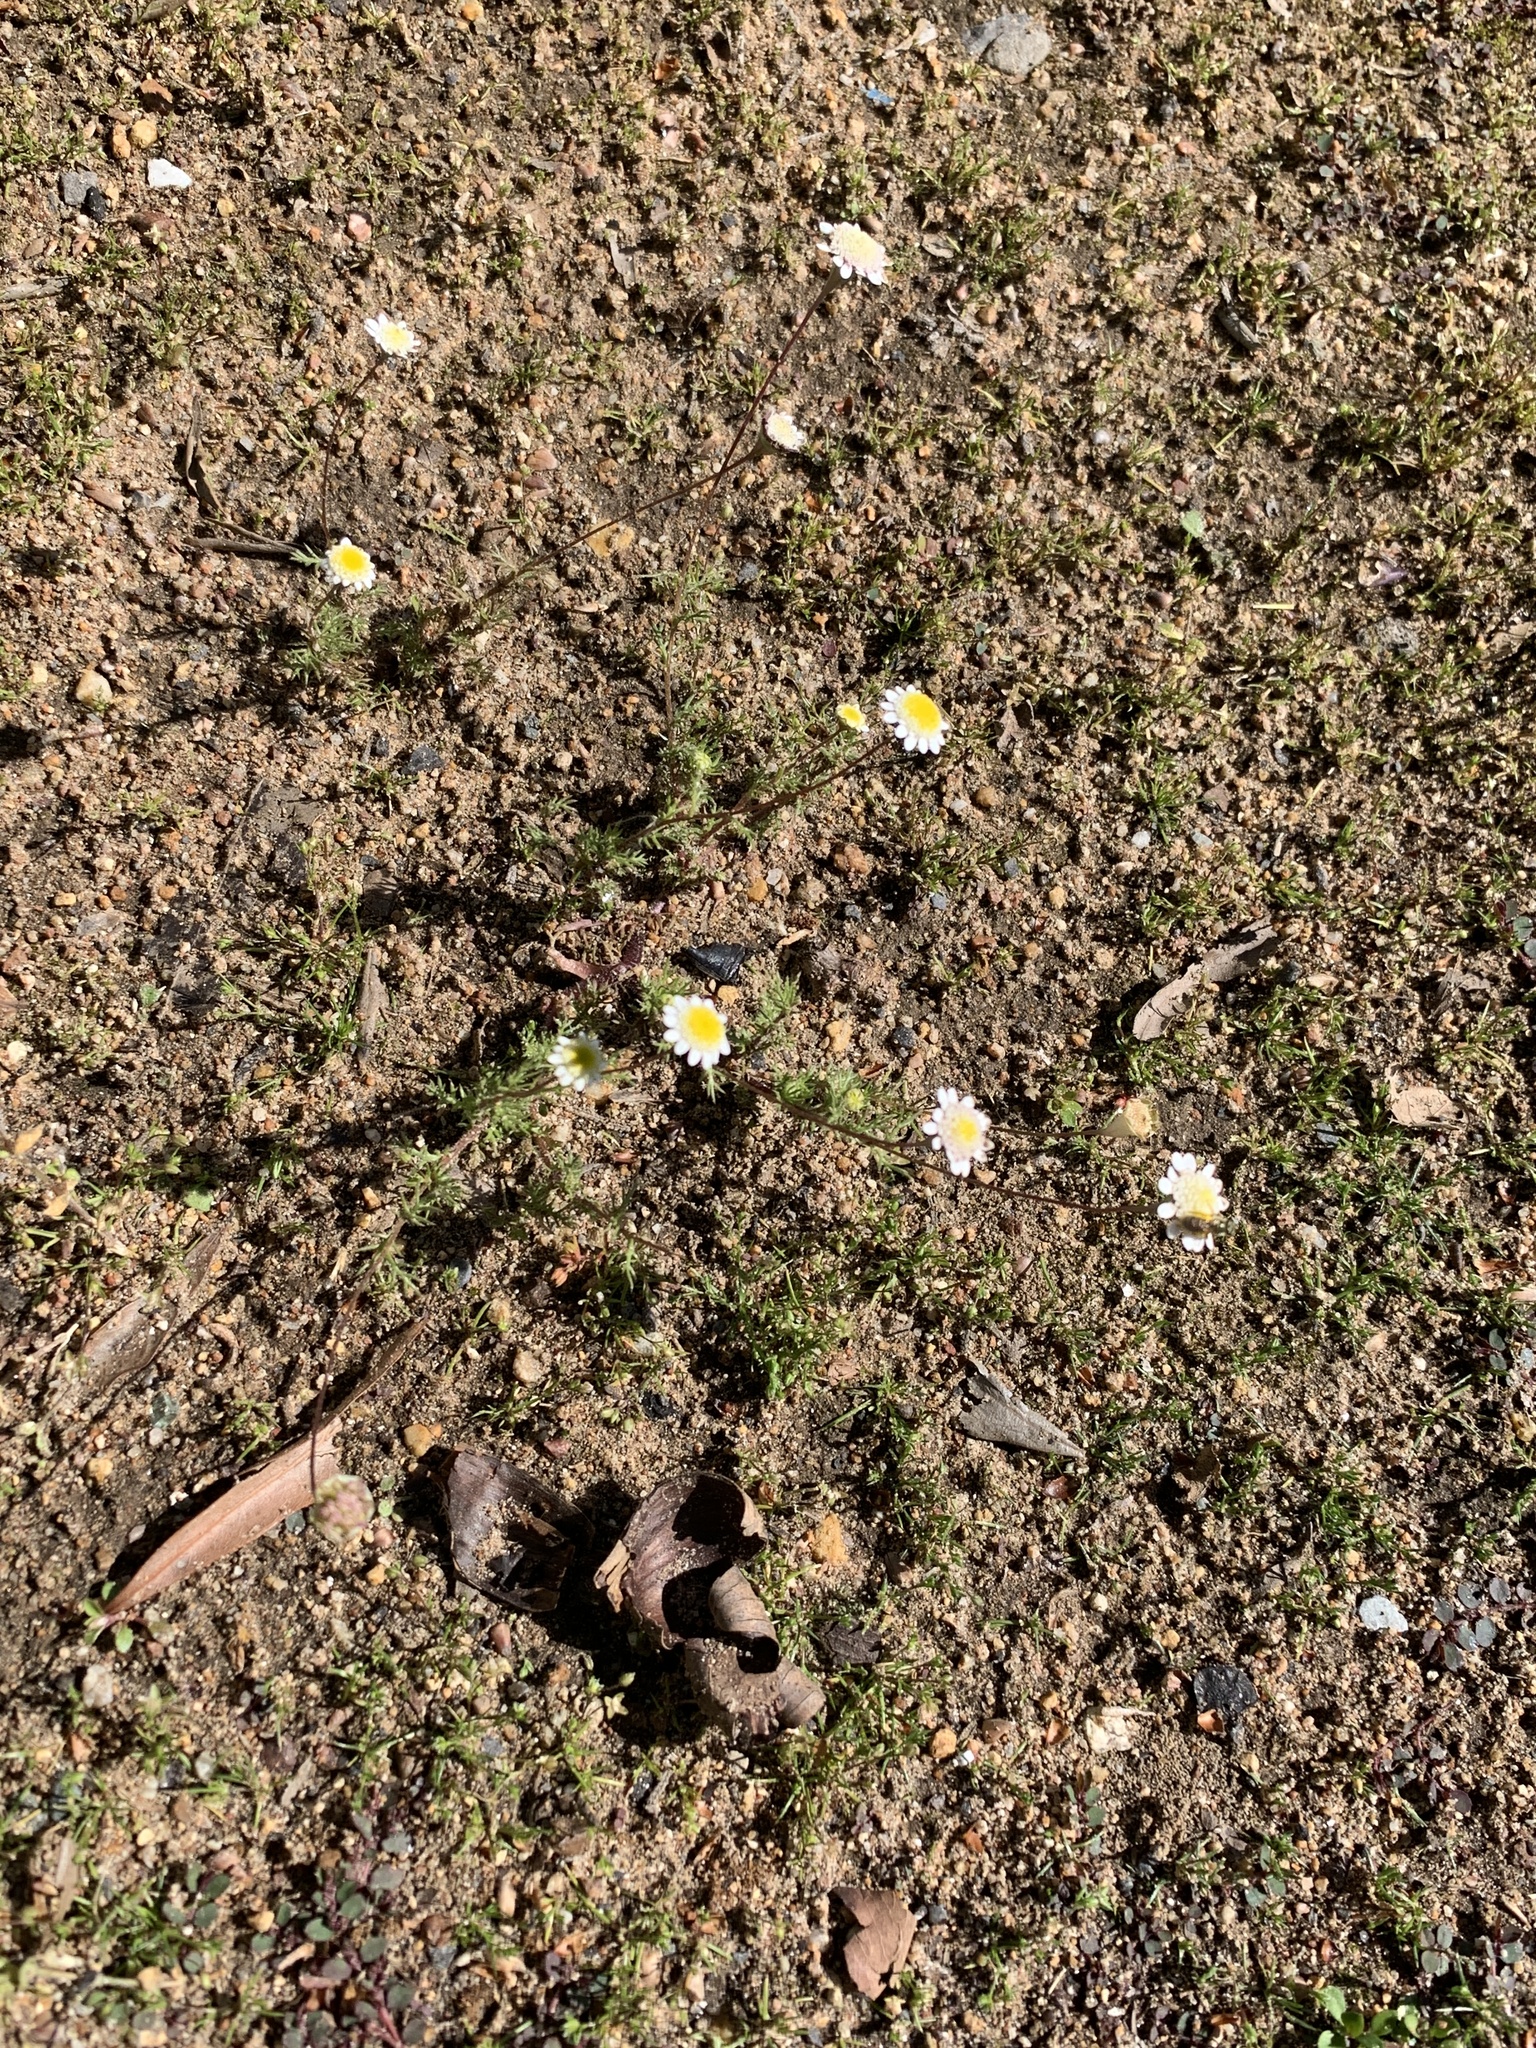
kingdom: Plantae
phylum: Tracheophyta
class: Magnoliopsida
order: Asterales
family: Asteraceae
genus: Cotula
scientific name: Cotula turbinata
